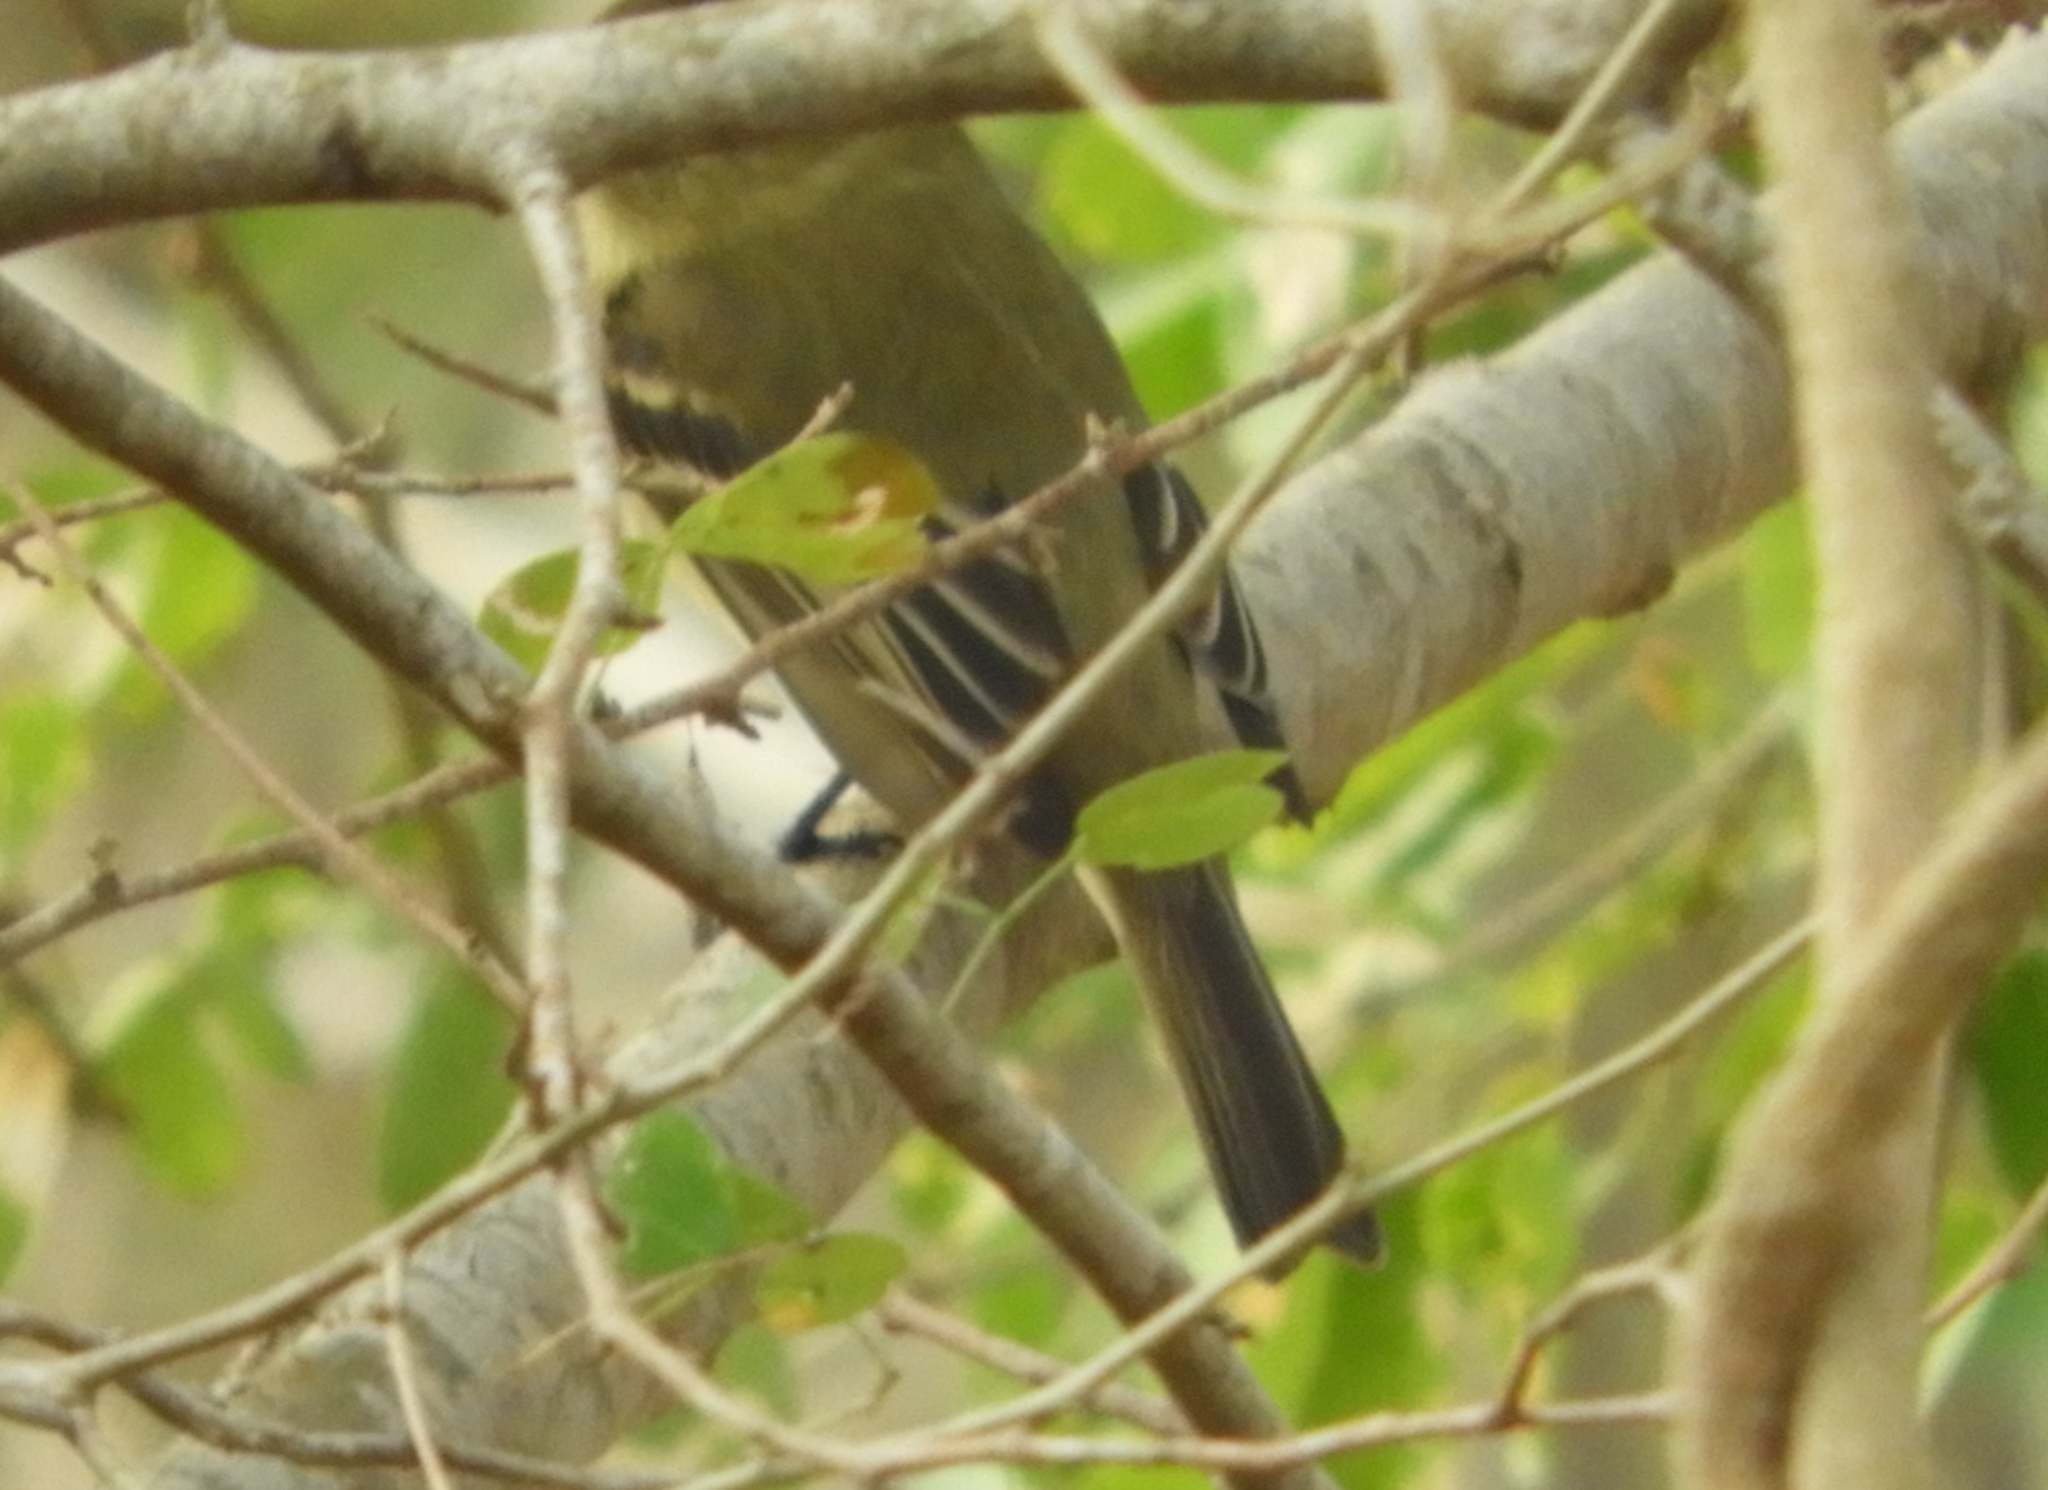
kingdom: Animalia
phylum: Chordata
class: Aves
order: Passeriformes
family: Tyrannidae
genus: Empidonax
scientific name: Empidonax difficilis
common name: Pacific-slope flycatcher
